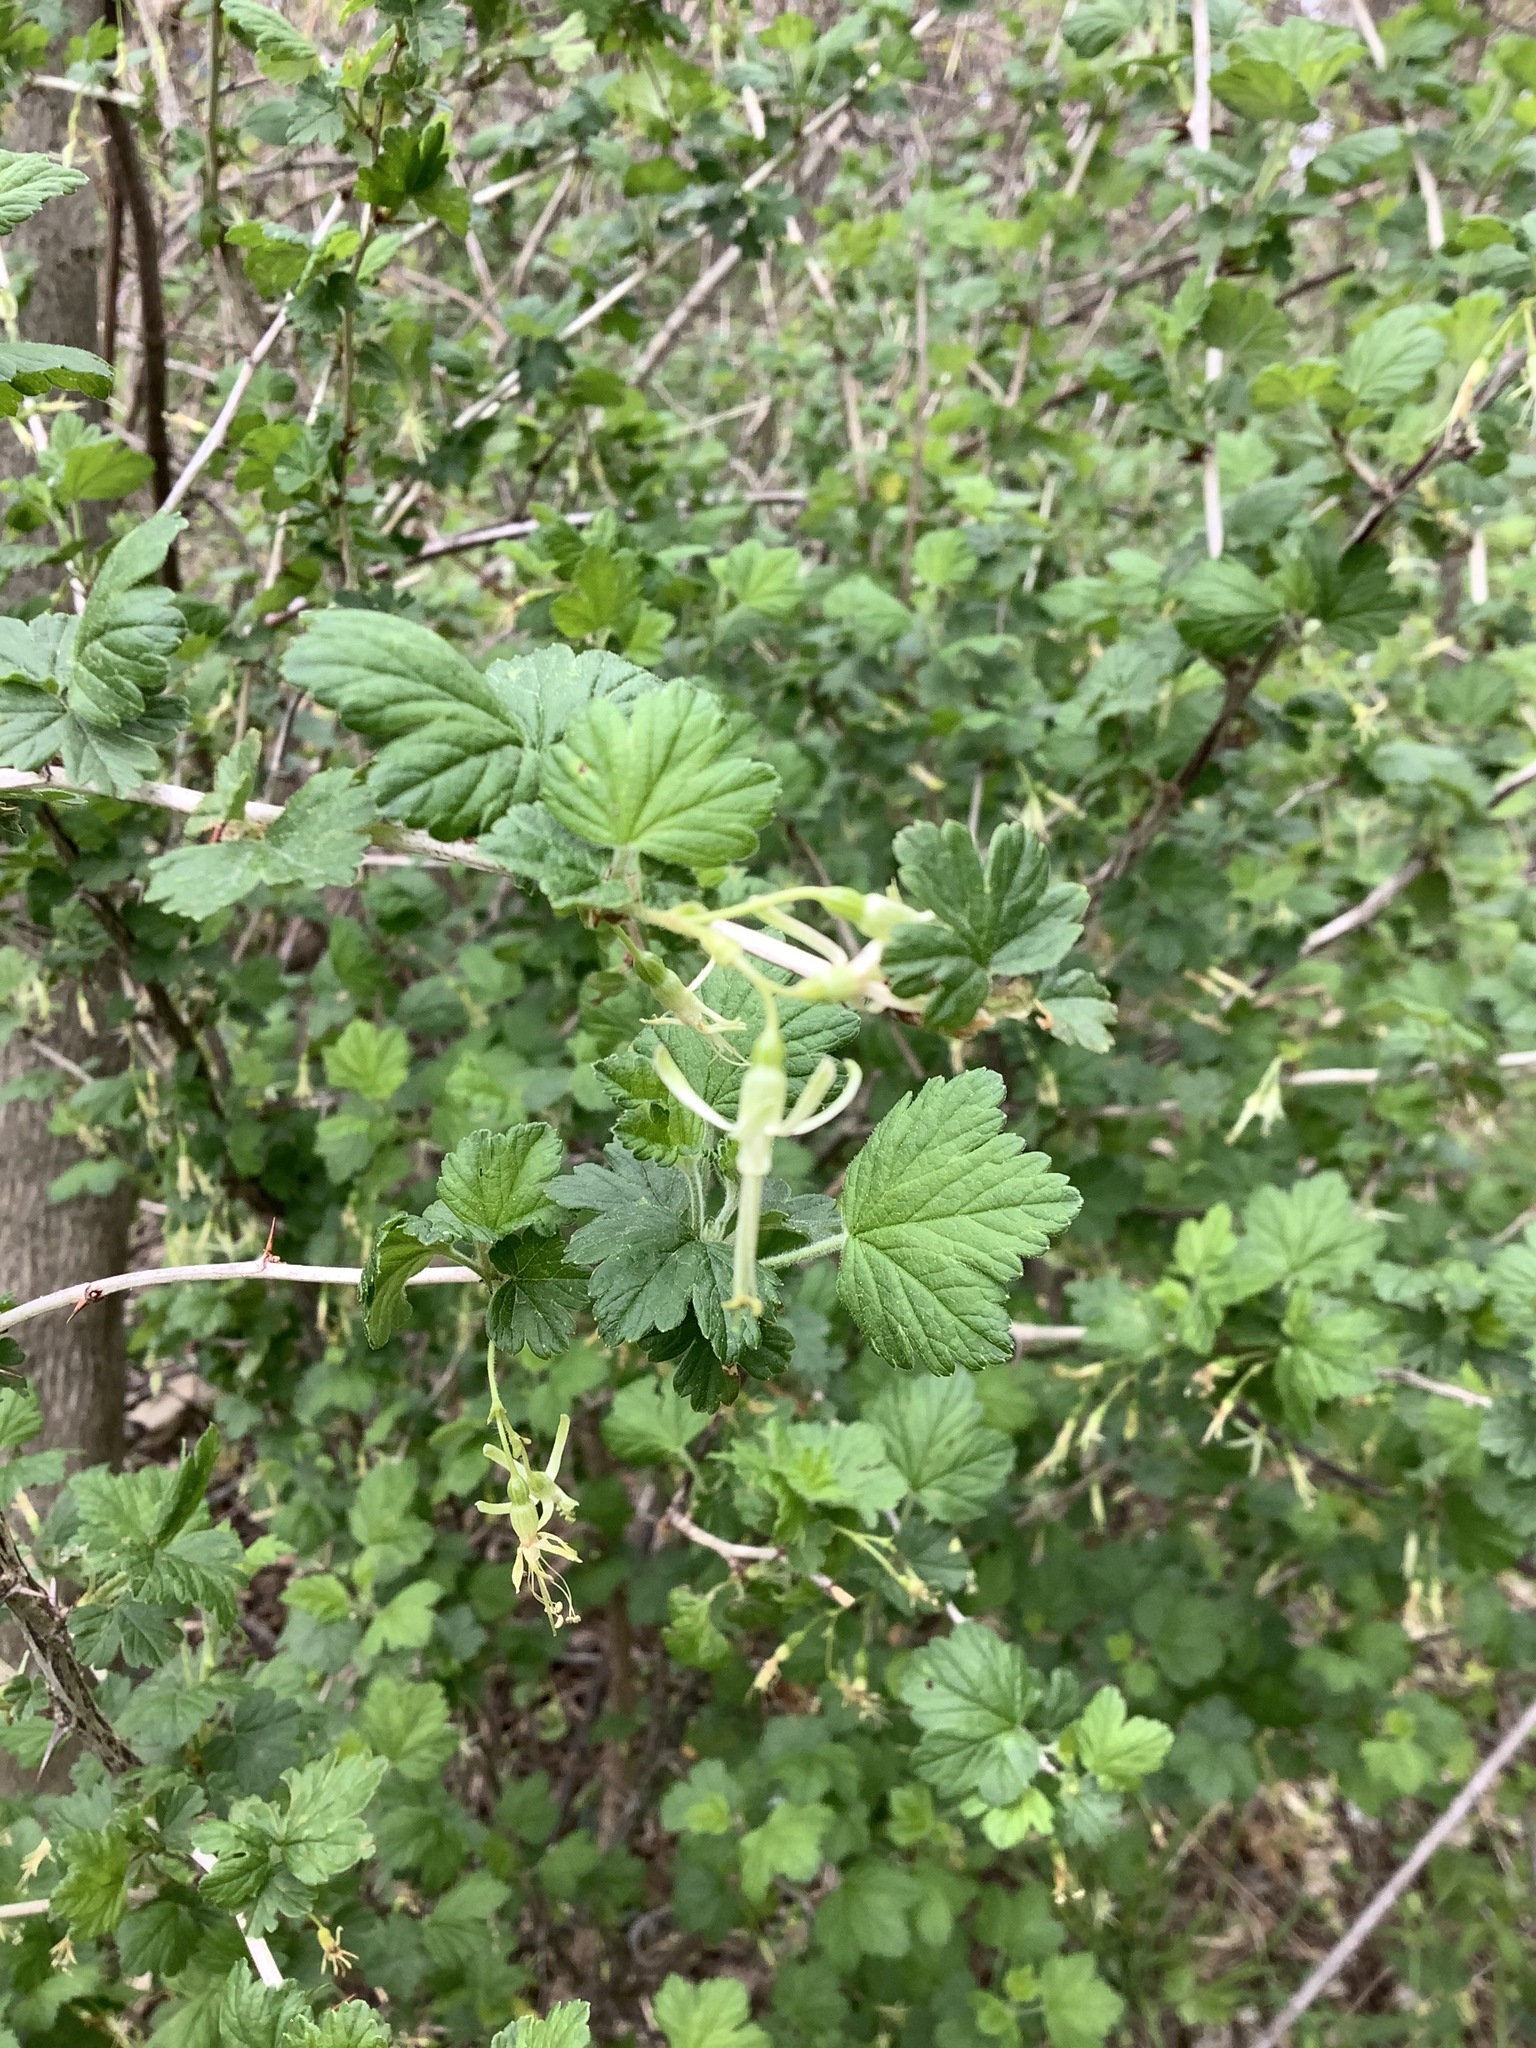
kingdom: Plantae
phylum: Tracheophyta
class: Magnoliopsida
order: Saxifragales
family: Grossulariaceae
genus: Ribes
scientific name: Ribes missouriense
